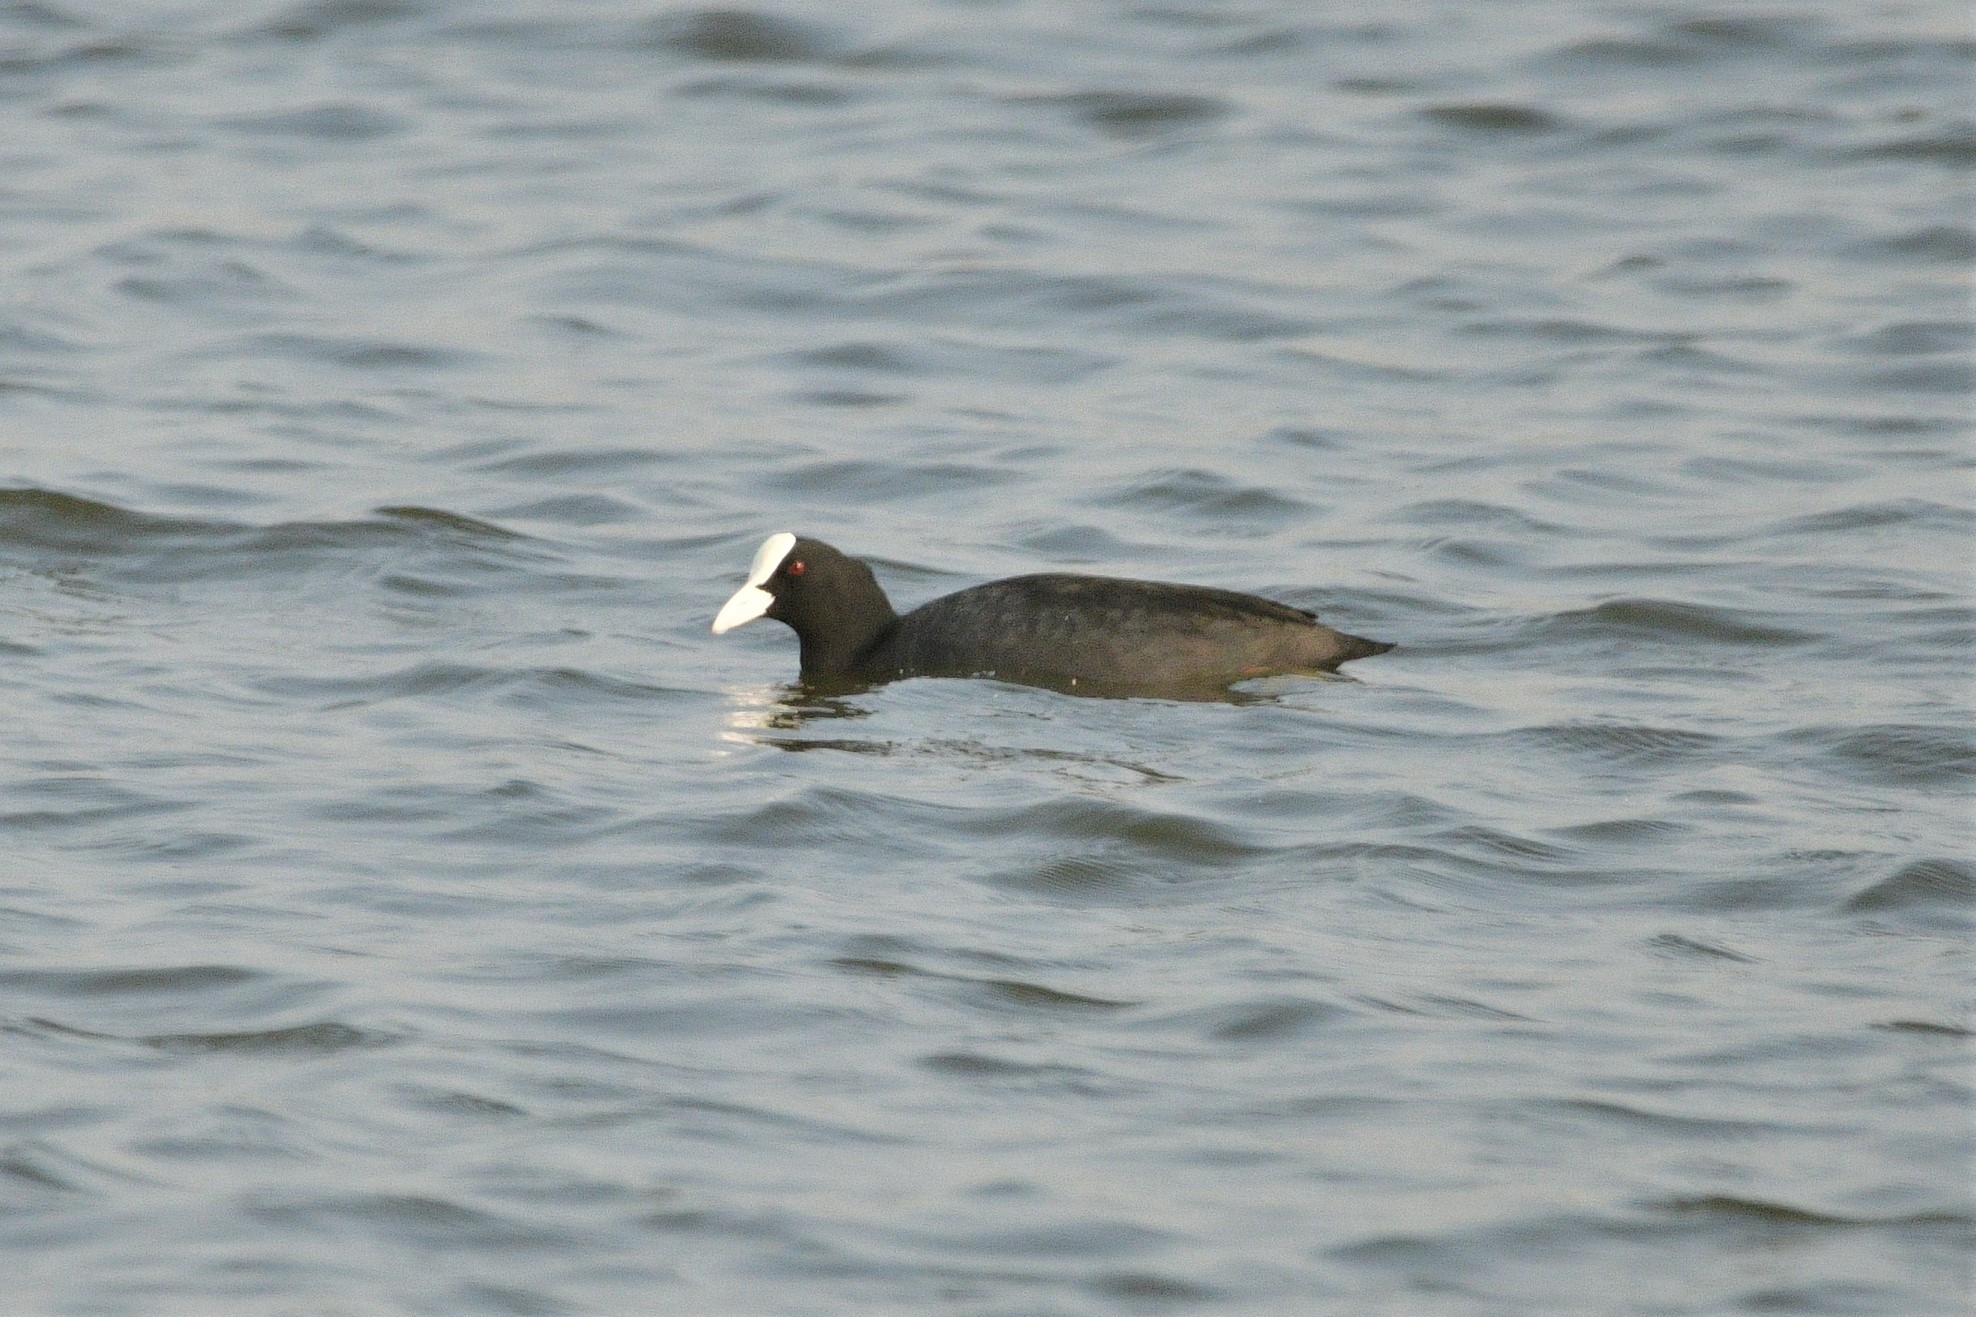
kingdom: Animalia
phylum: Chordata
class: Aves
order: Gruiformes
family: Rallidae
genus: Fulica
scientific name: Fulica atra
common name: Eurasian coot
